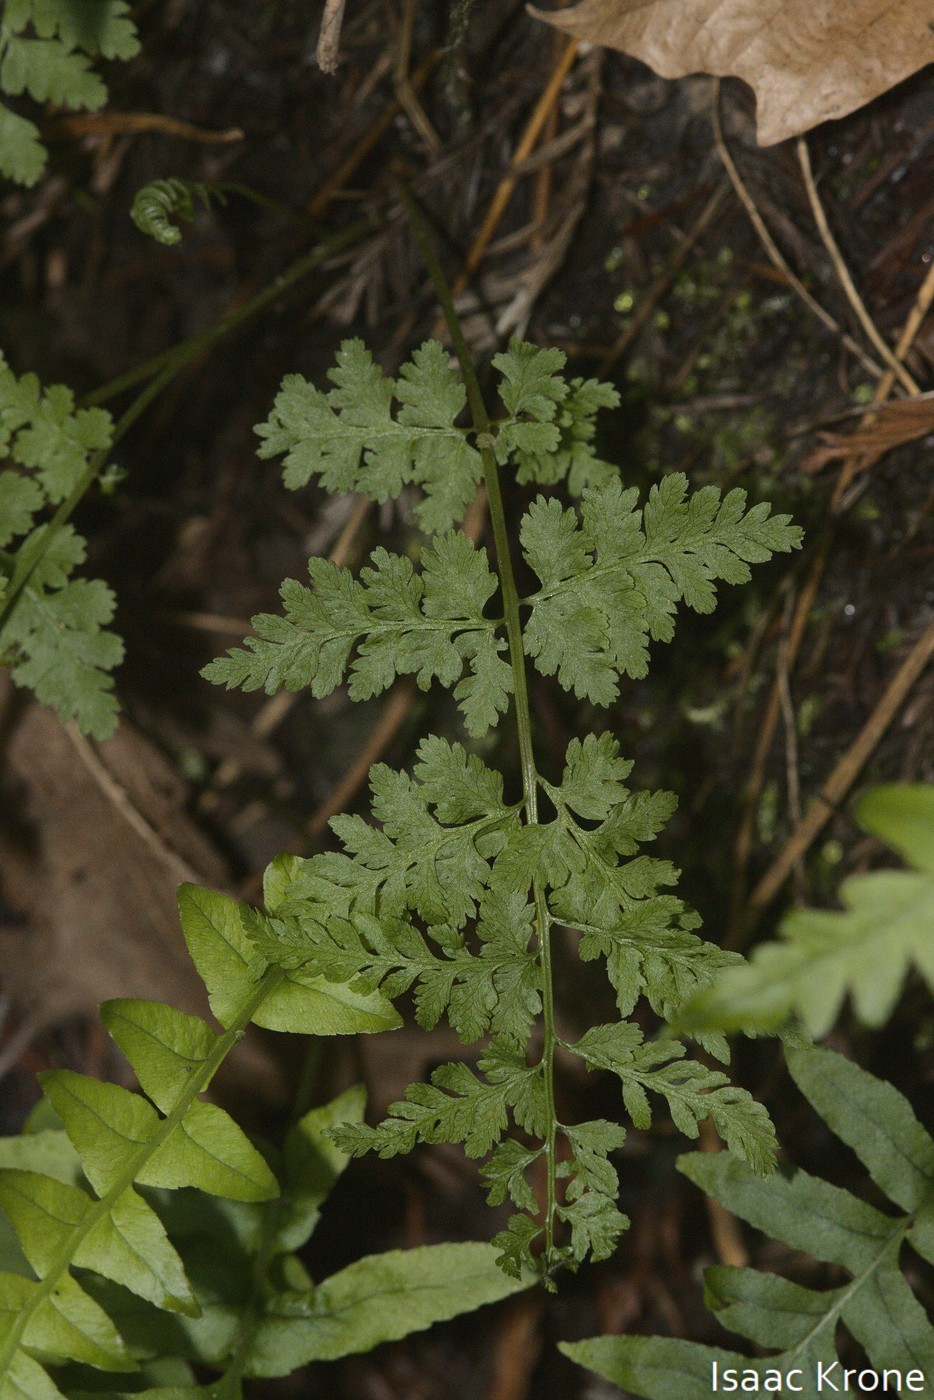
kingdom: Plantae
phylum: Tracheophyta
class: Polypodiopsida
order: Polypodiales
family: Cystopteridaceae
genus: Cystopteris
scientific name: Cystopteris fragilis
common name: Brittle bladder fern
